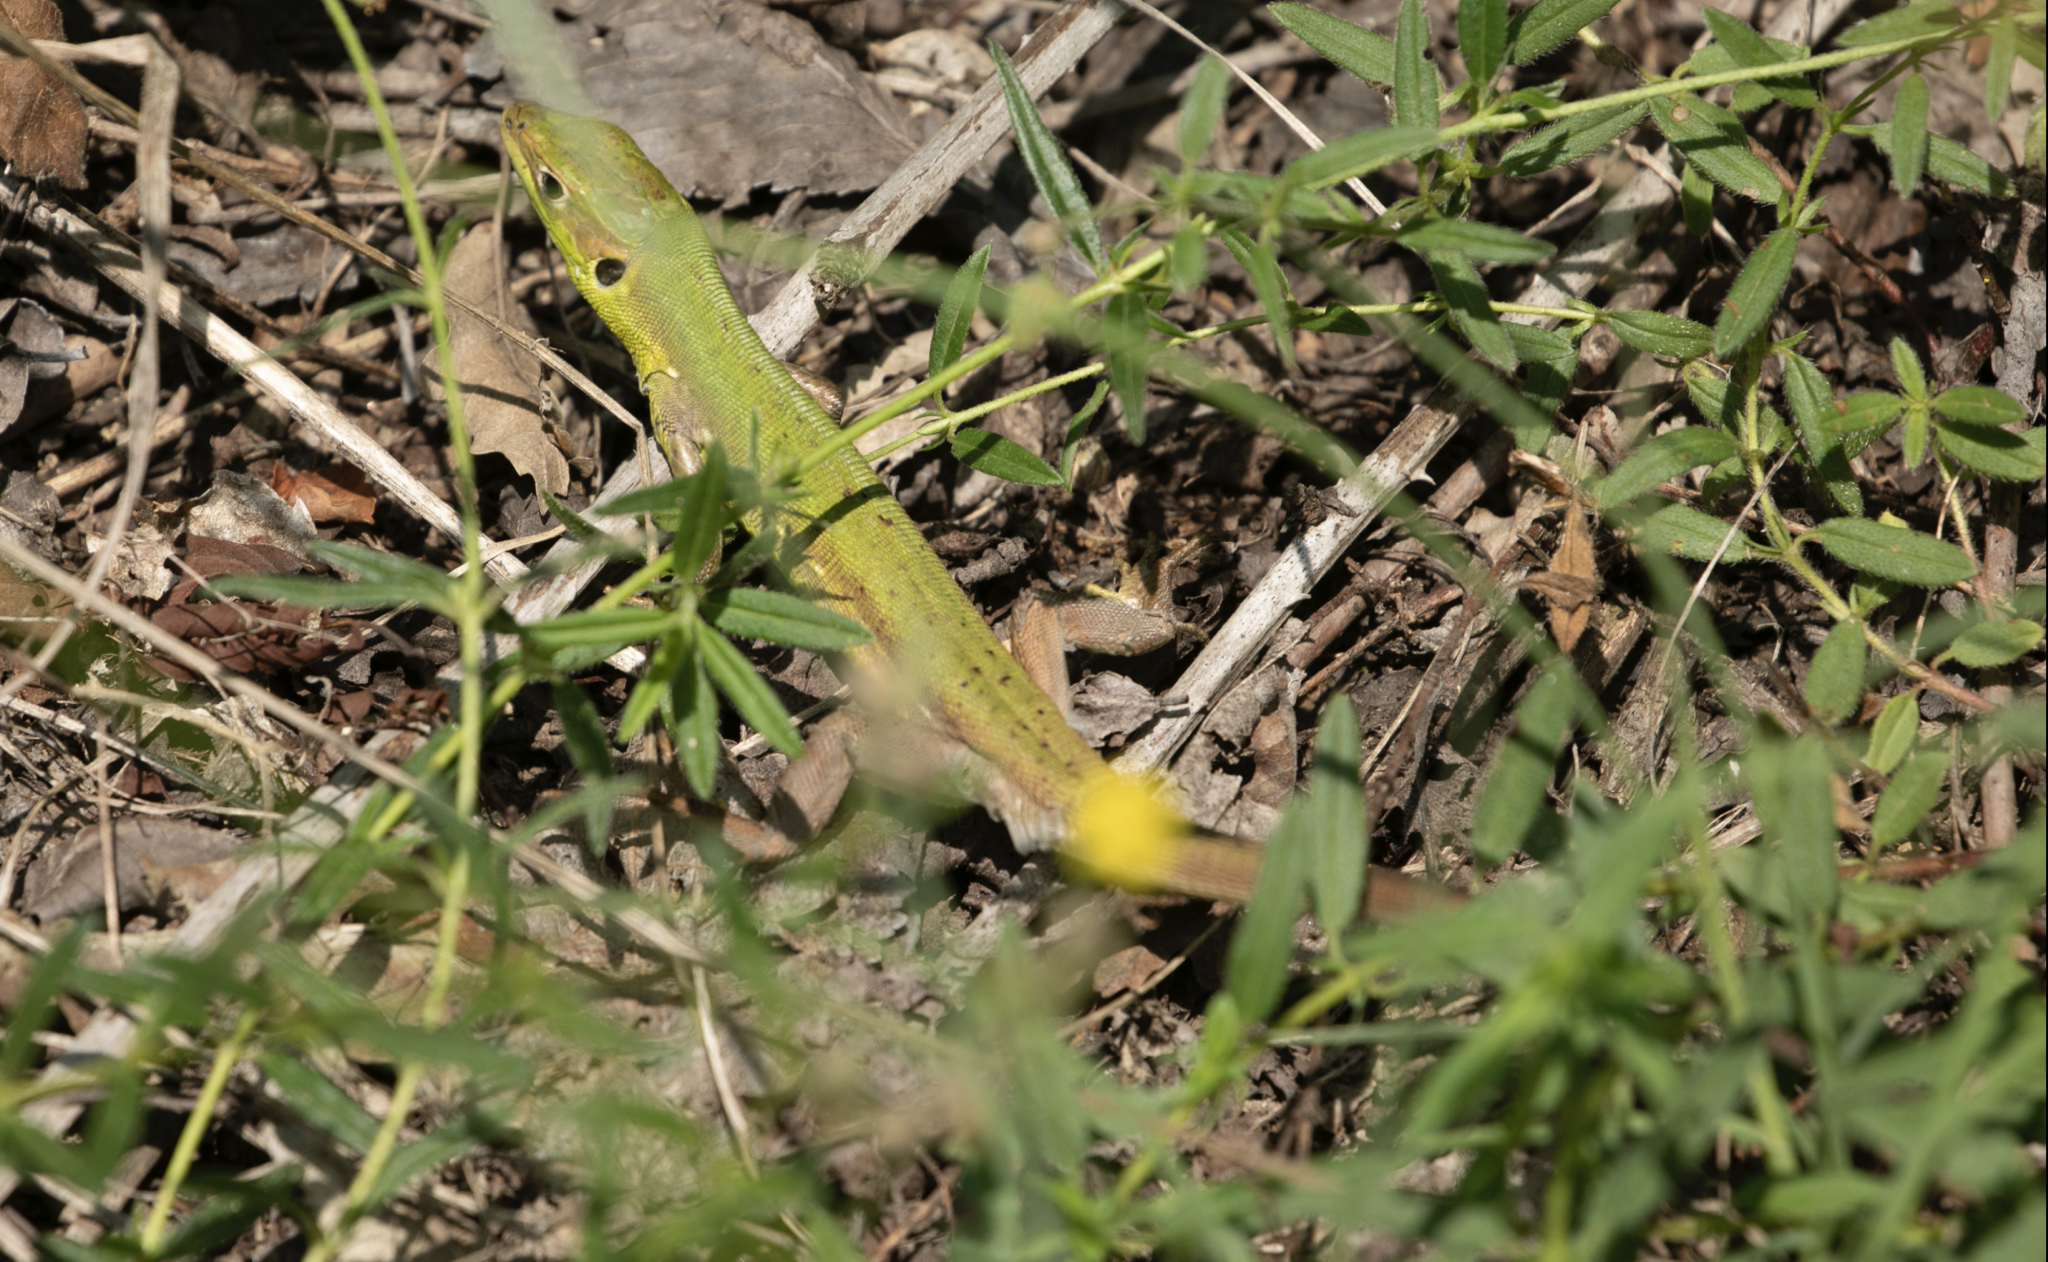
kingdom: Animalia
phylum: Chordata
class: Squamata
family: Lacertidae
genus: Lacerta
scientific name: Lacerta bilineata
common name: Western green lizard
